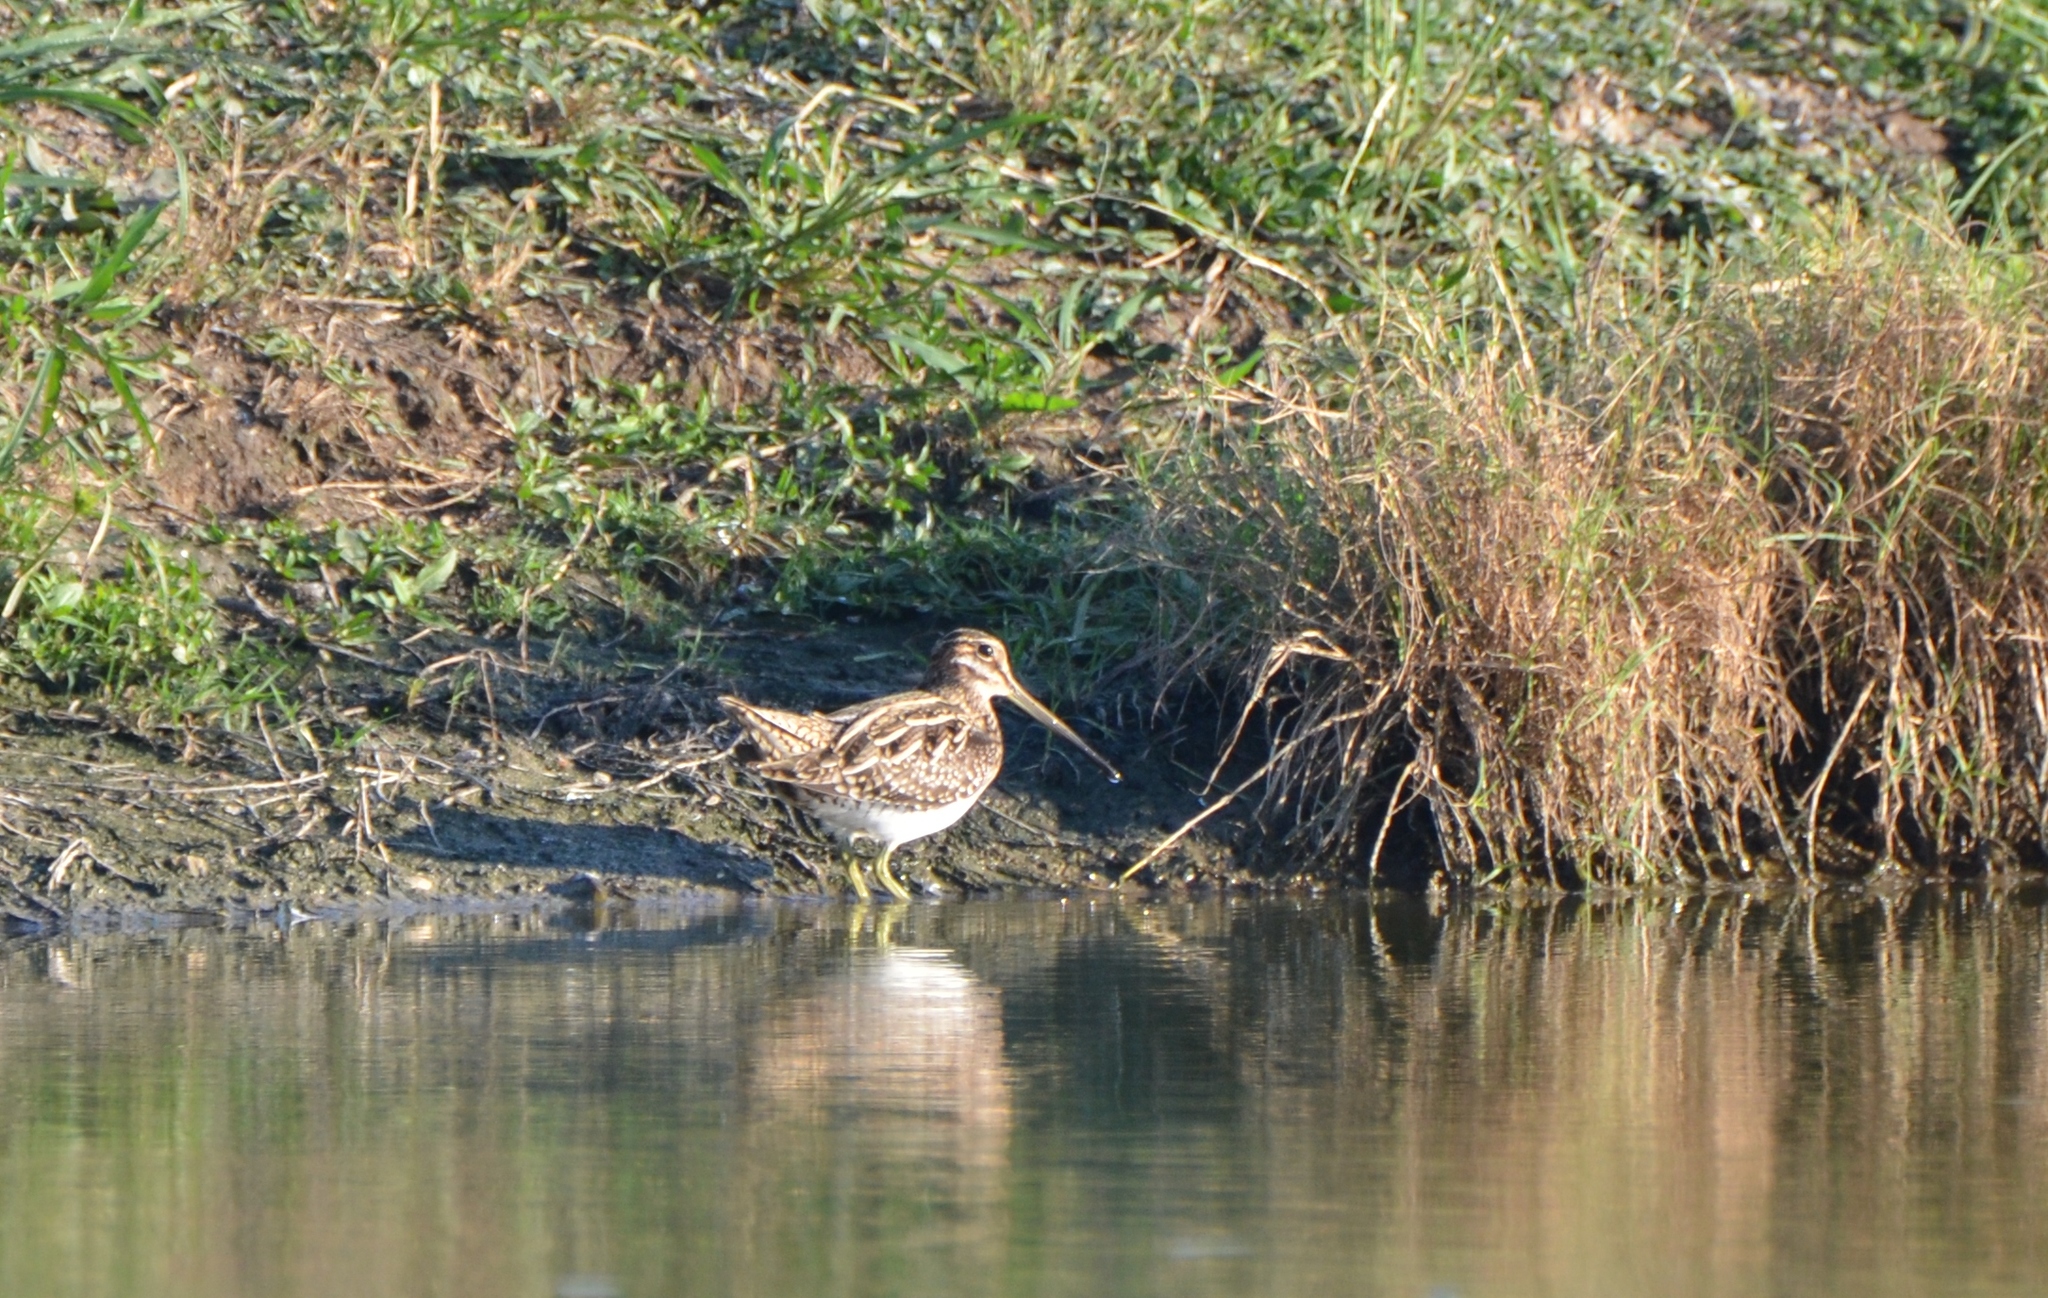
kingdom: Animalia
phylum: Chordata
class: Aves
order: Charadriiformes
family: Scolopacidae
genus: Gallinago
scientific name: Gallinago delicata
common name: Wilson's snipe
